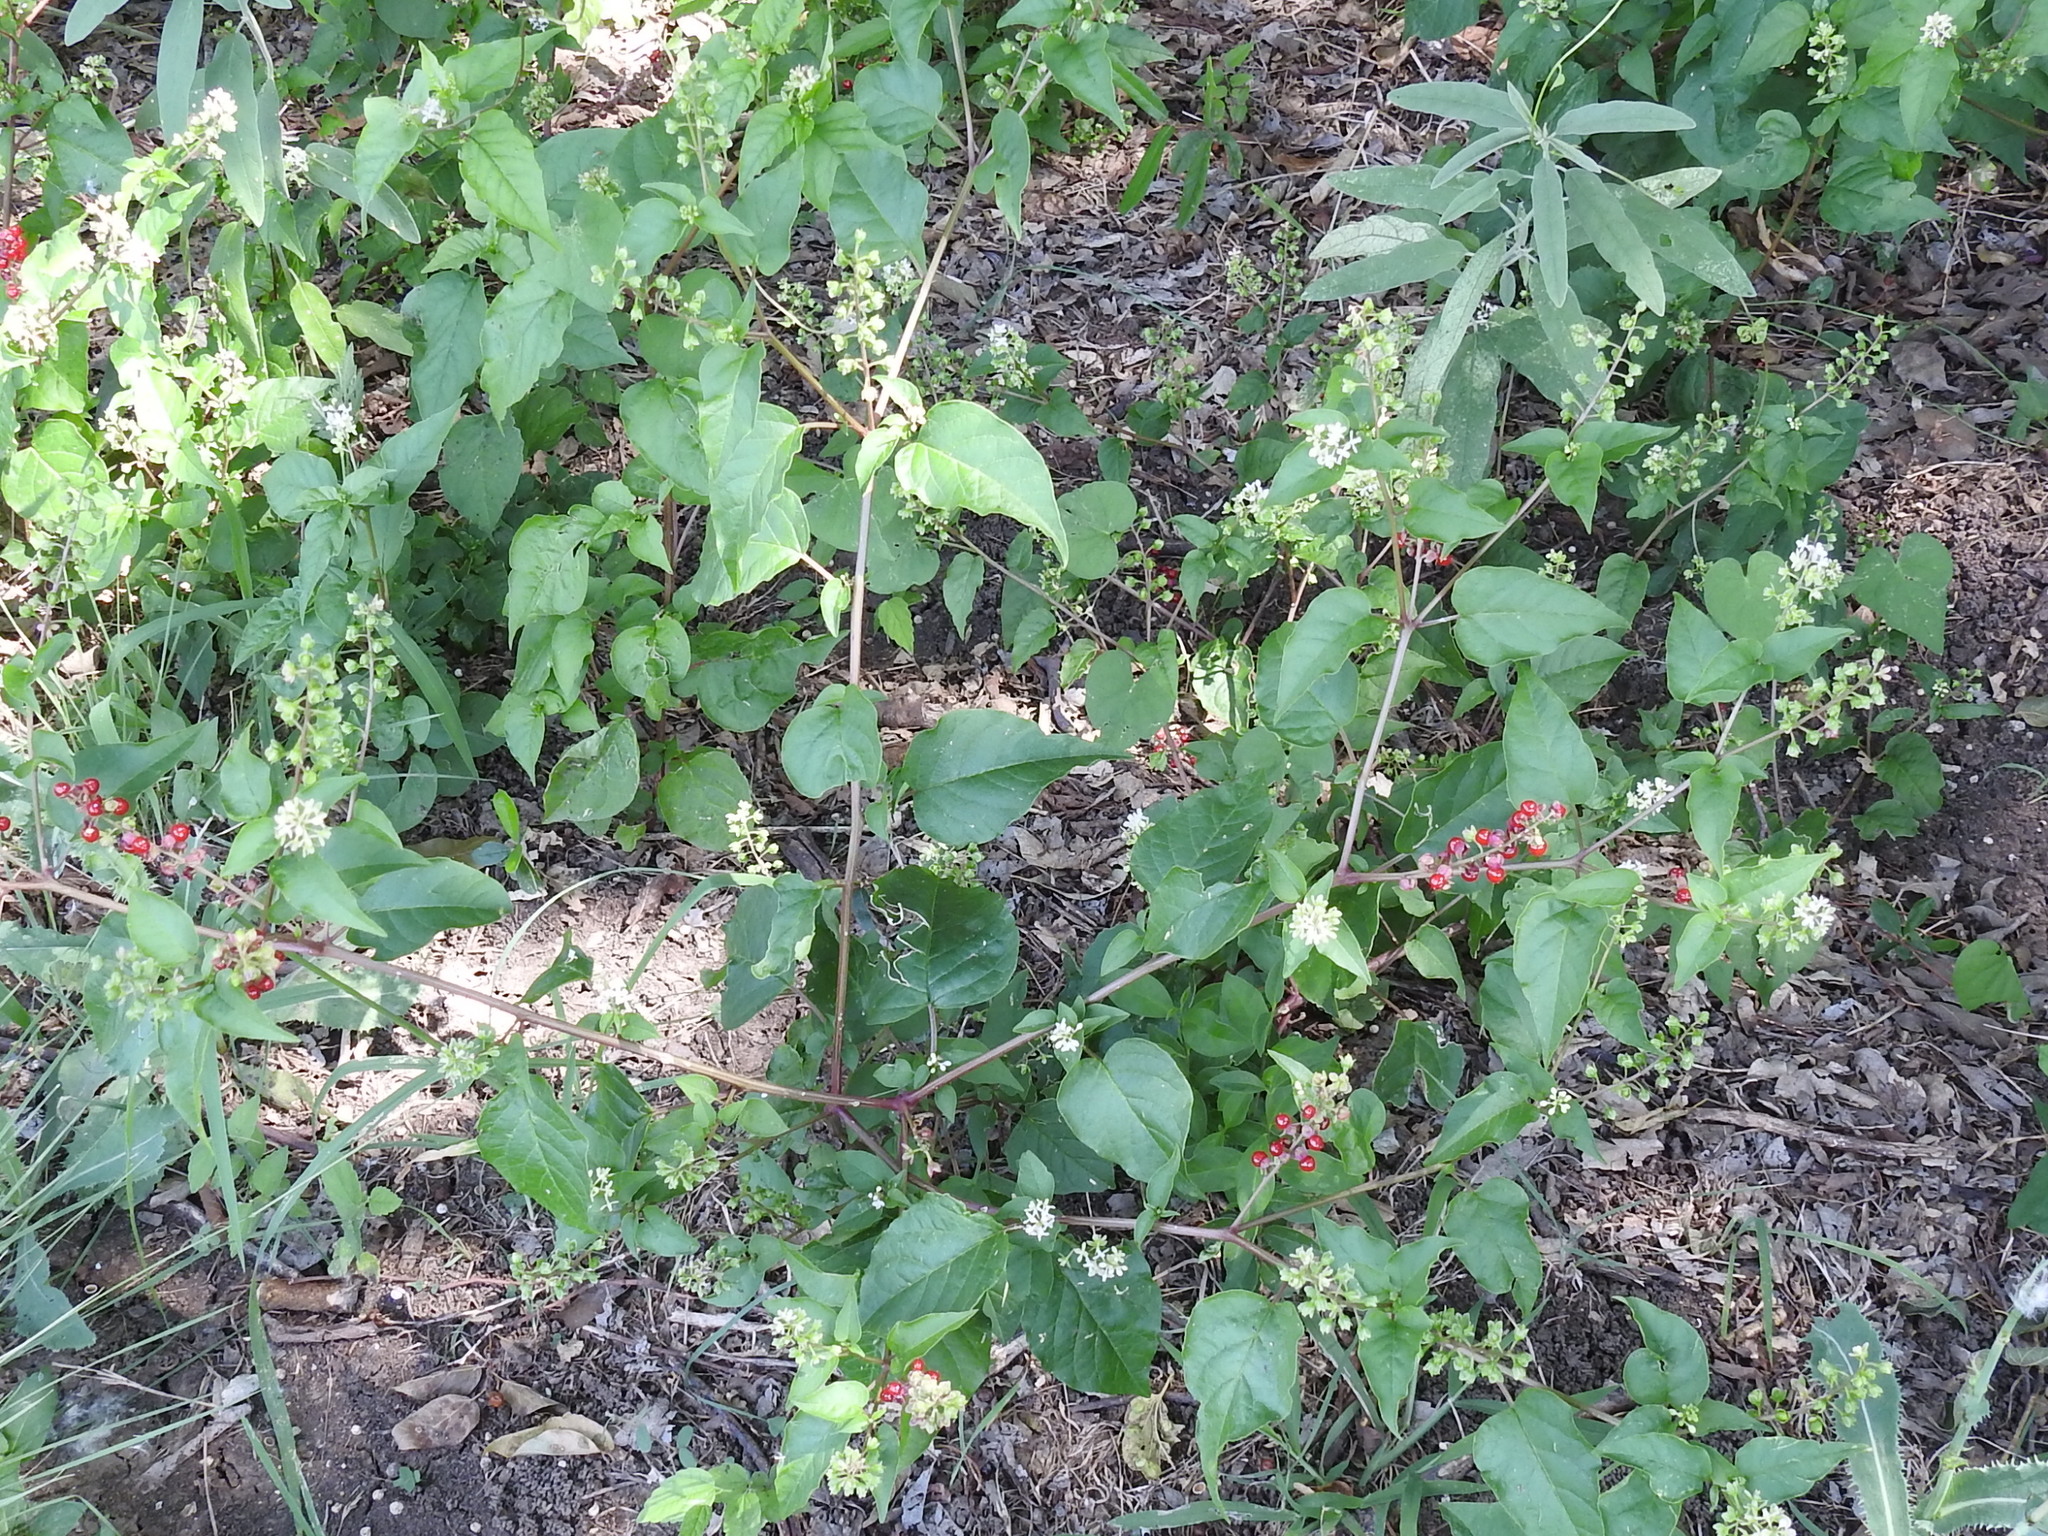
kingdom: Plantae
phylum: Tracheophyta
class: Magnoliopsida
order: Caryophyllales
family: Phytolaccaceae
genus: Rivina
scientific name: Rivina humilis
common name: Rougeplant
